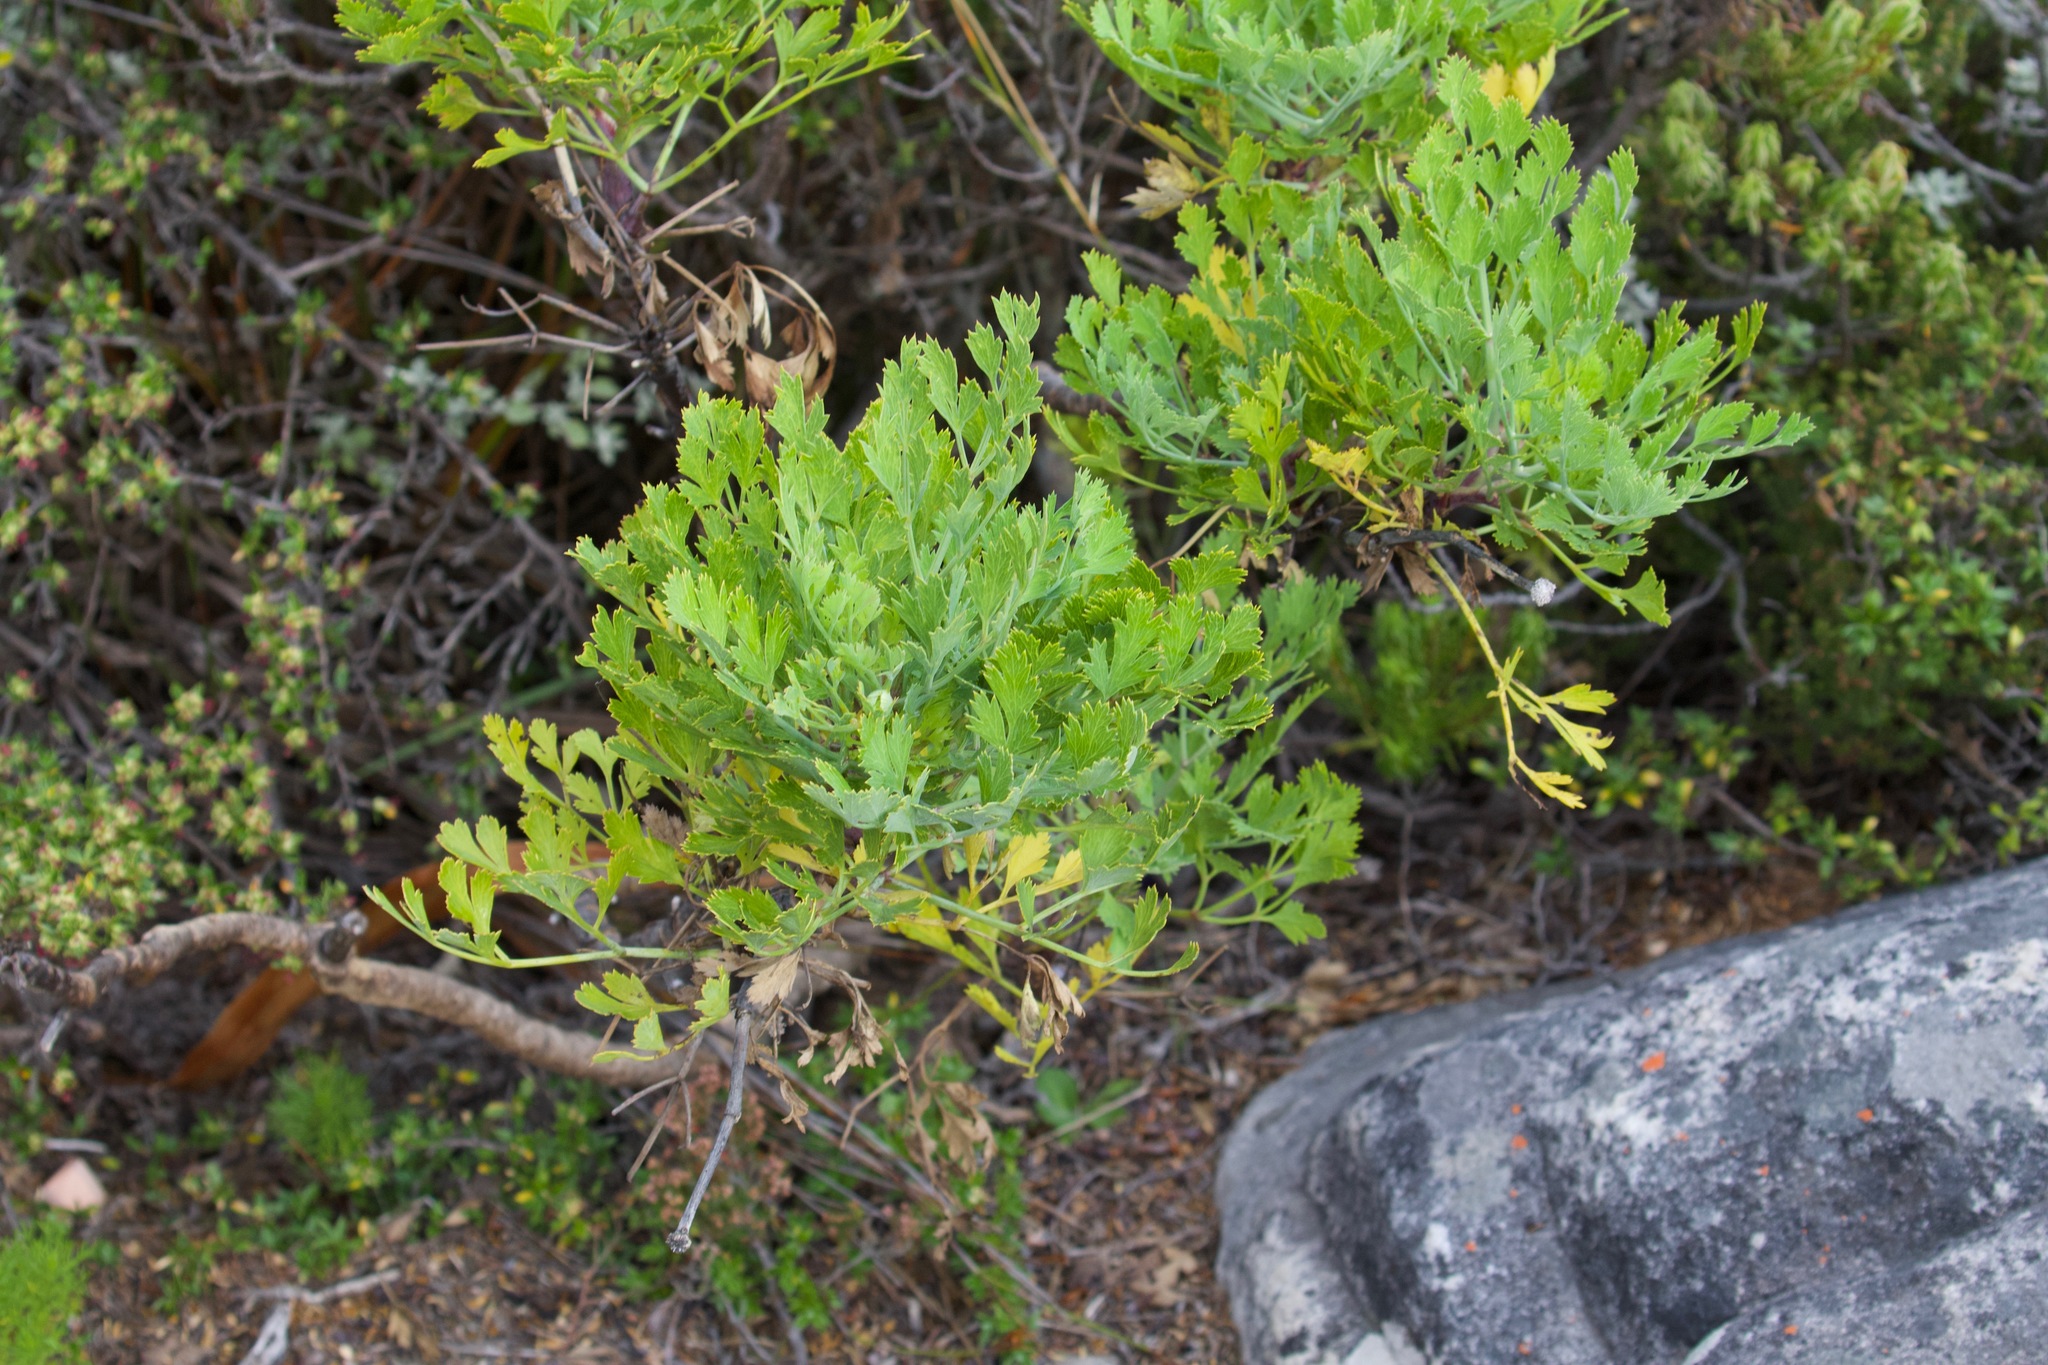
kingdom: Plantae
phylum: Tracheophyta
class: Magnoliopsida
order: Apiales
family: Apiaceae
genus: Notobubon
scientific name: Notobubon galbanum
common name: Blisterbush
